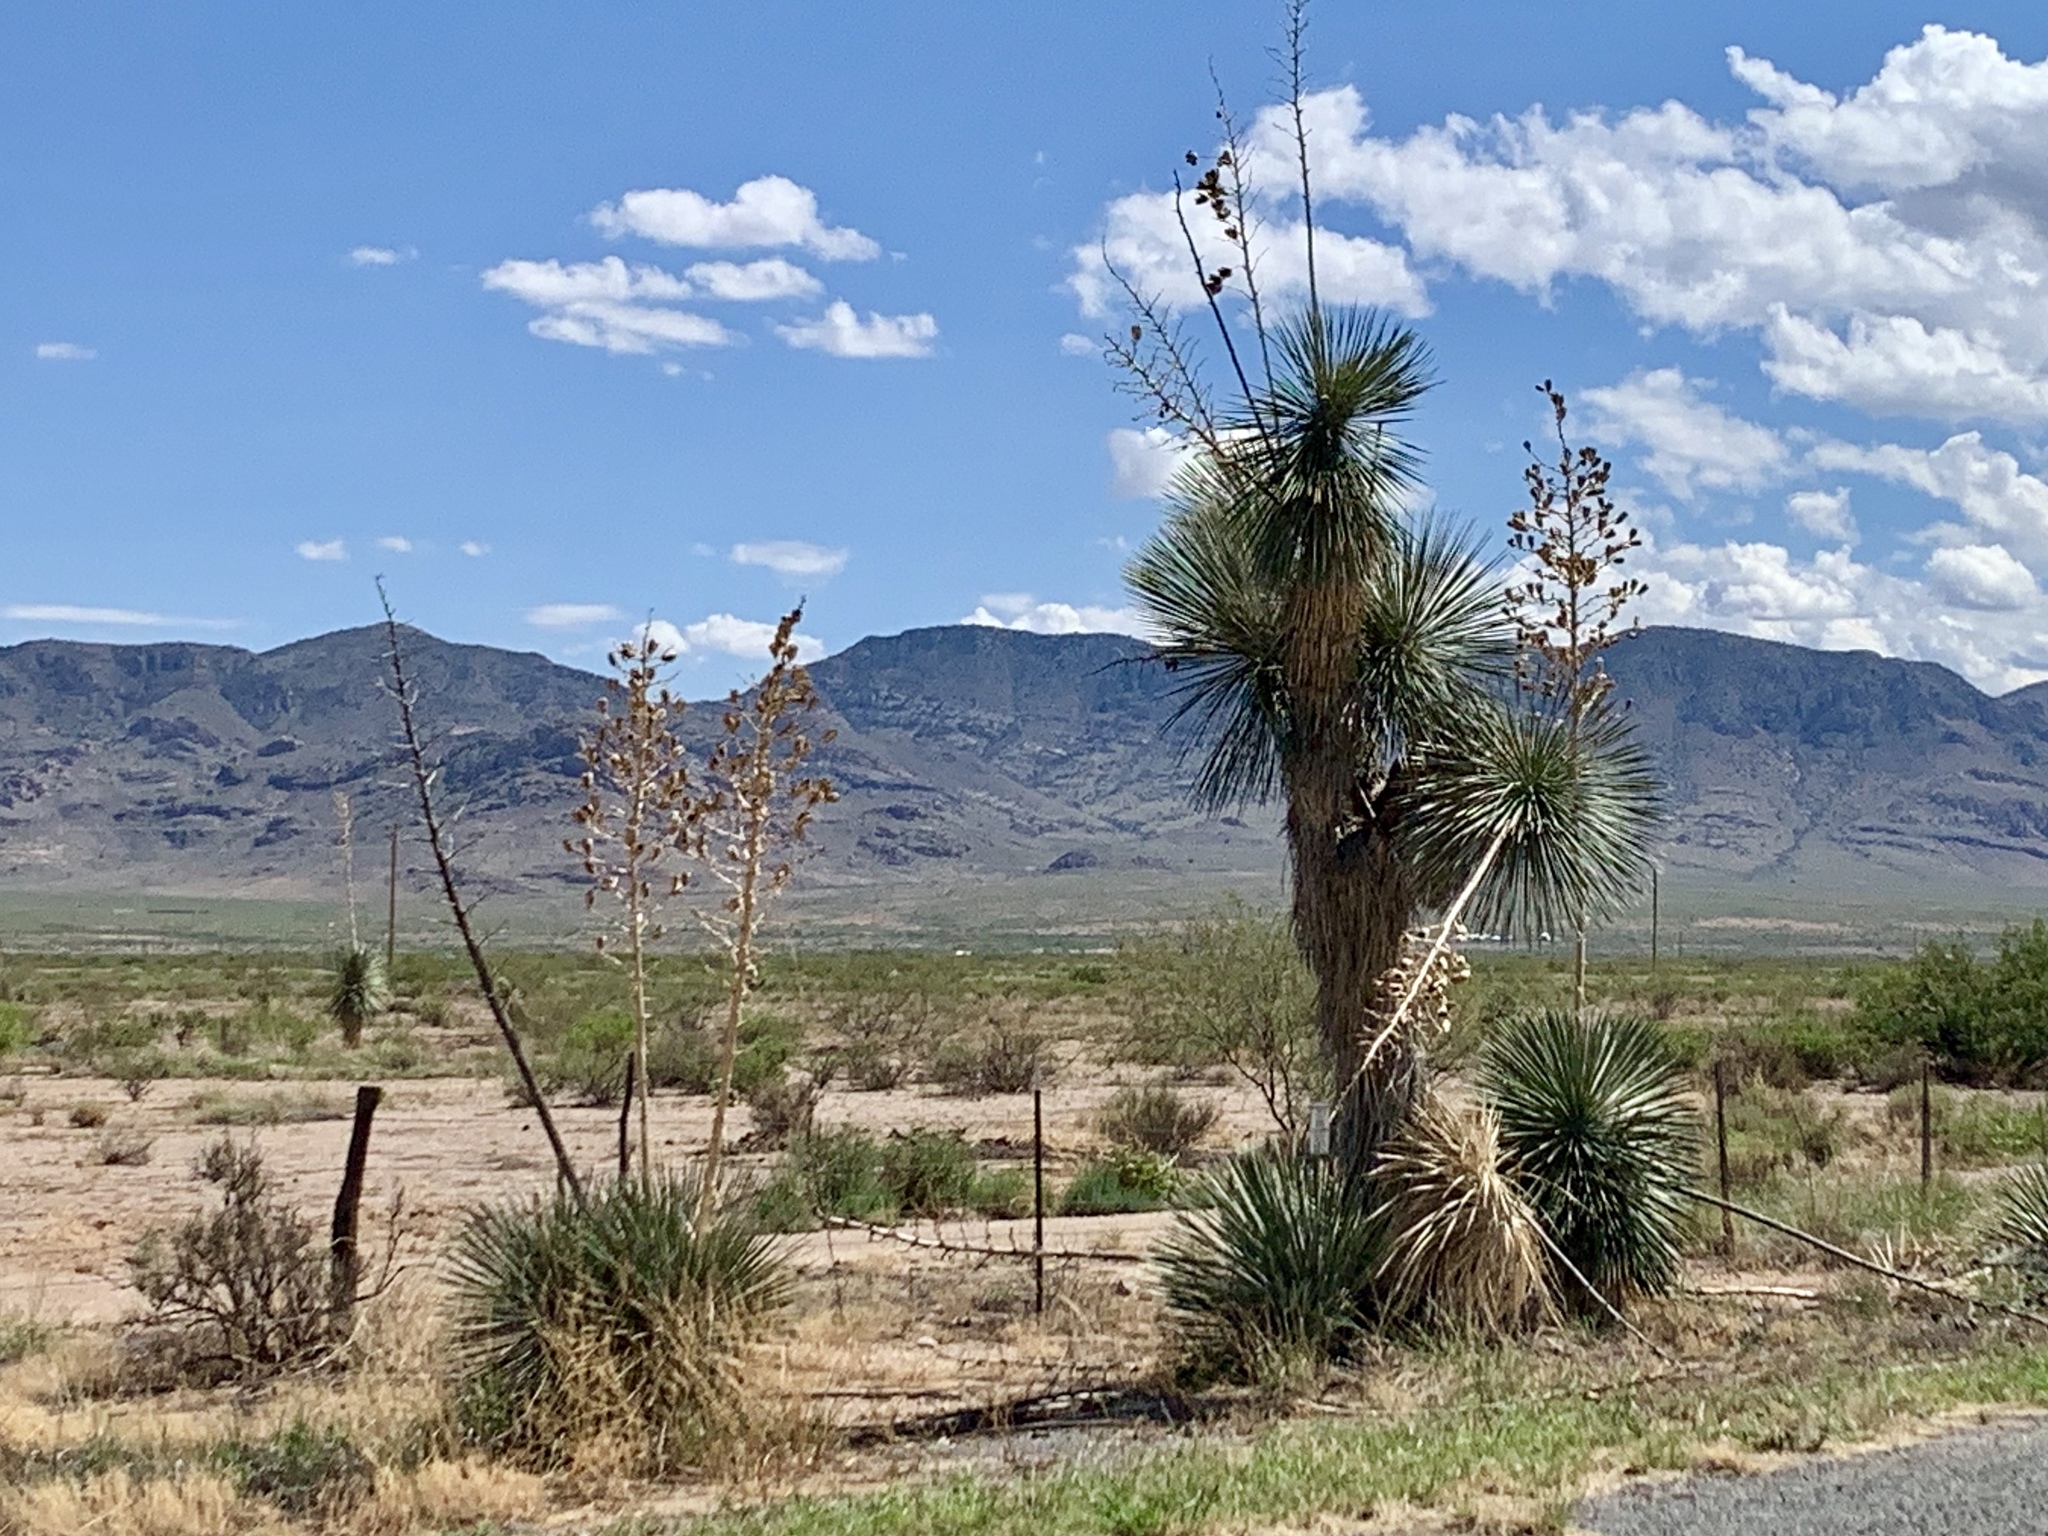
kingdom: Plantae
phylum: Tracheophyta
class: Liliopsida
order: Asparagales
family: Asparagaceae
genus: Yucca
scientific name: Yucca elata
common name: Palmella
